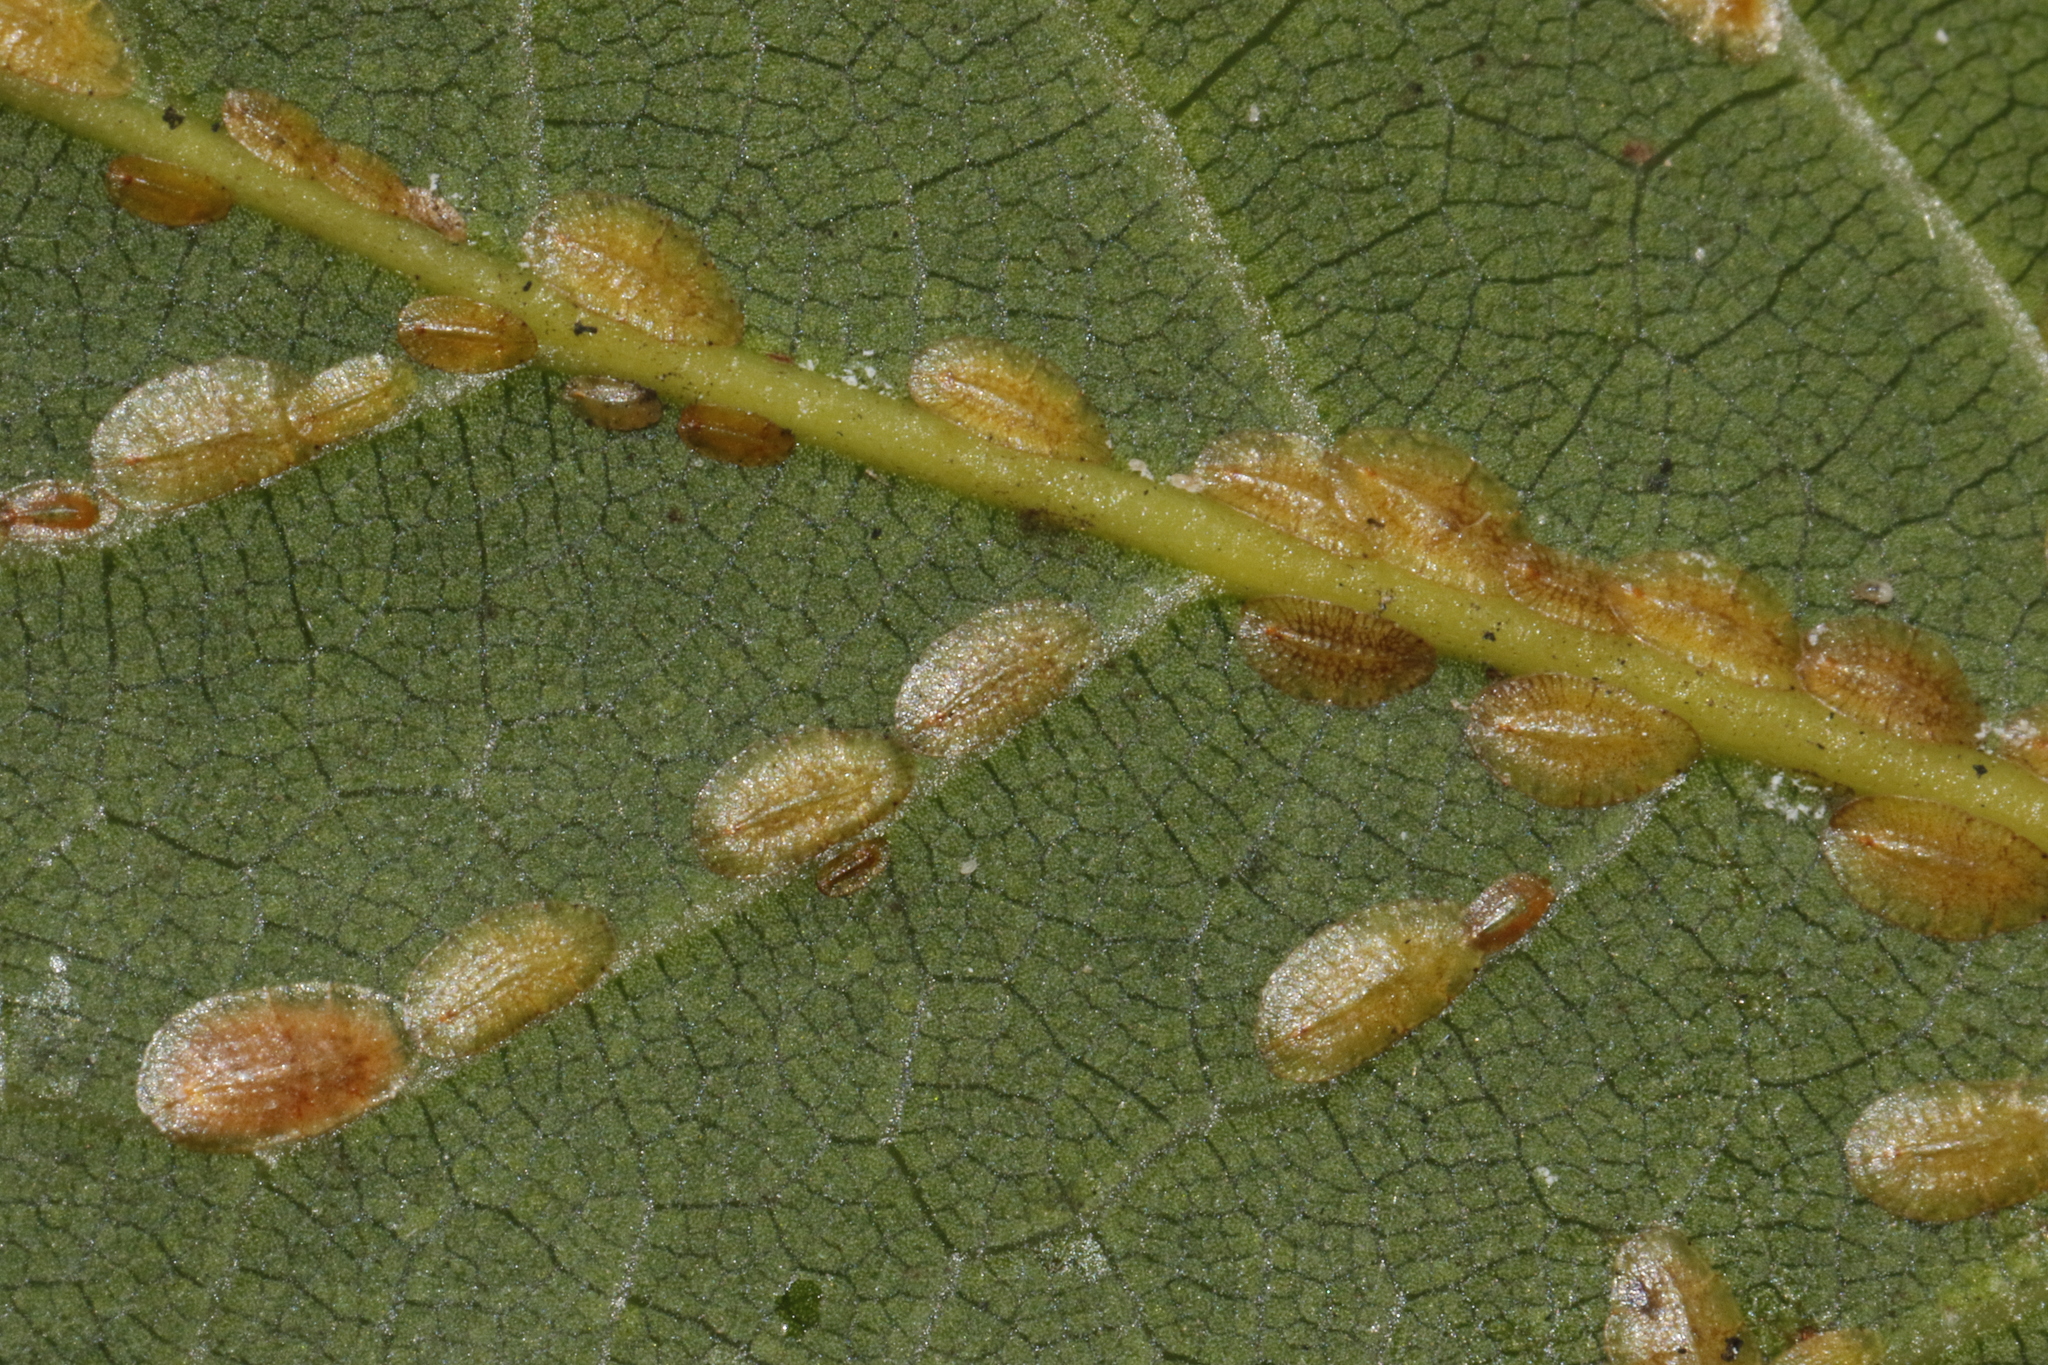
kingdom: Animalia
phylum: Arthropoda
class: Insecta
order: Hemiptera
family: Coccidae
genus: Coccus
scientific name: Coccus hesperidum
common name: Soft brown scale
